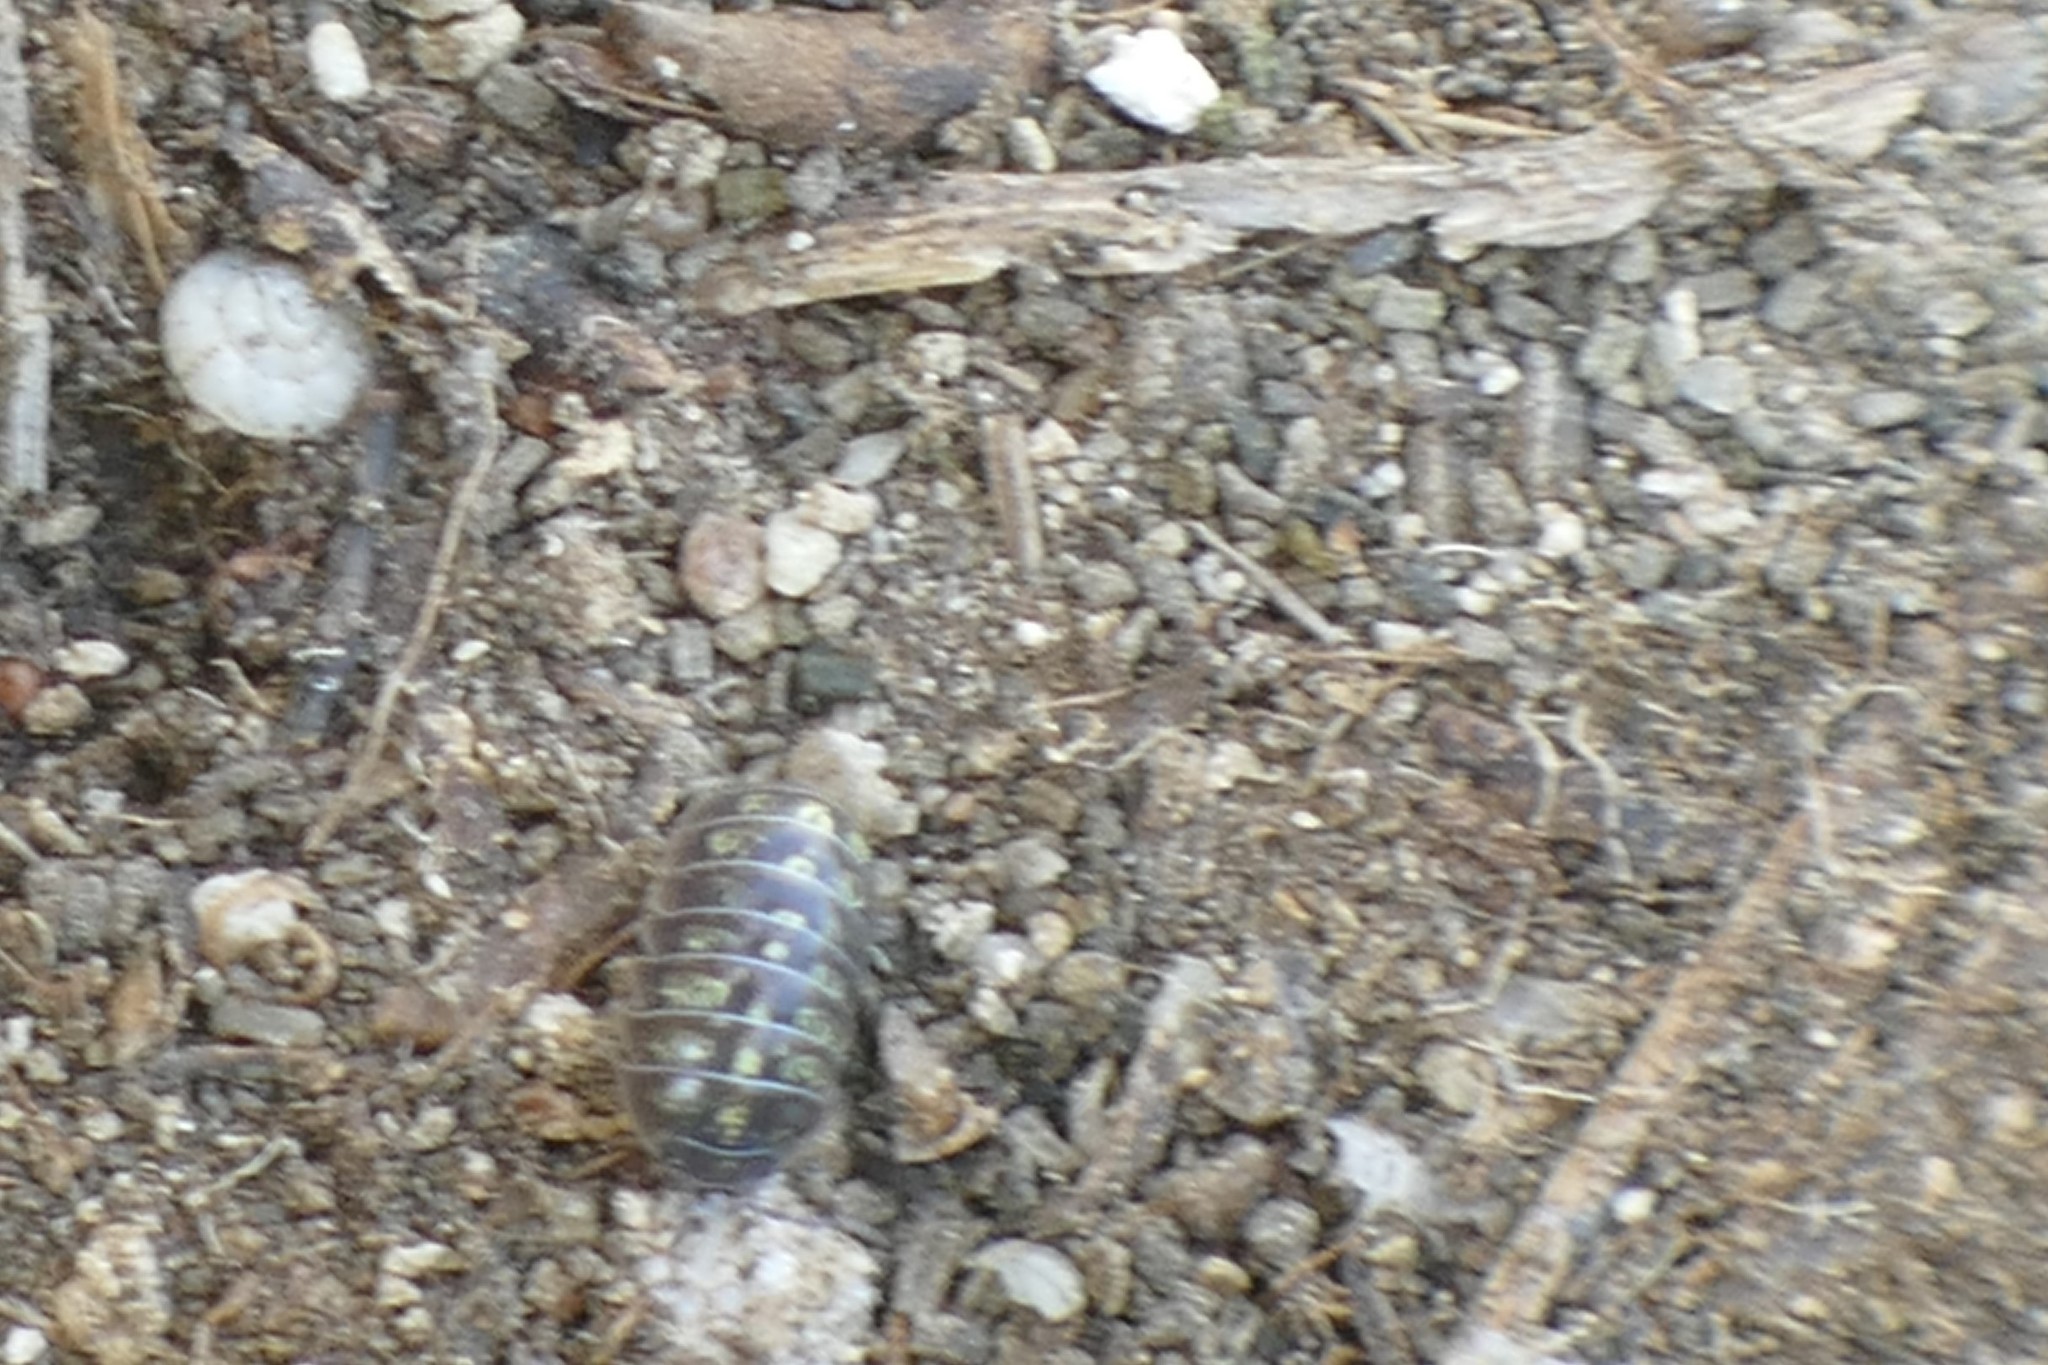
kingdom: Animalia
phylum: Arthropoda
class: Malacostraca
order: Isopoda
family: Armadillidiidae
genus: Armadillidium
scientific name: Armadillidium vulgare
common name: Common pill woodlouse
